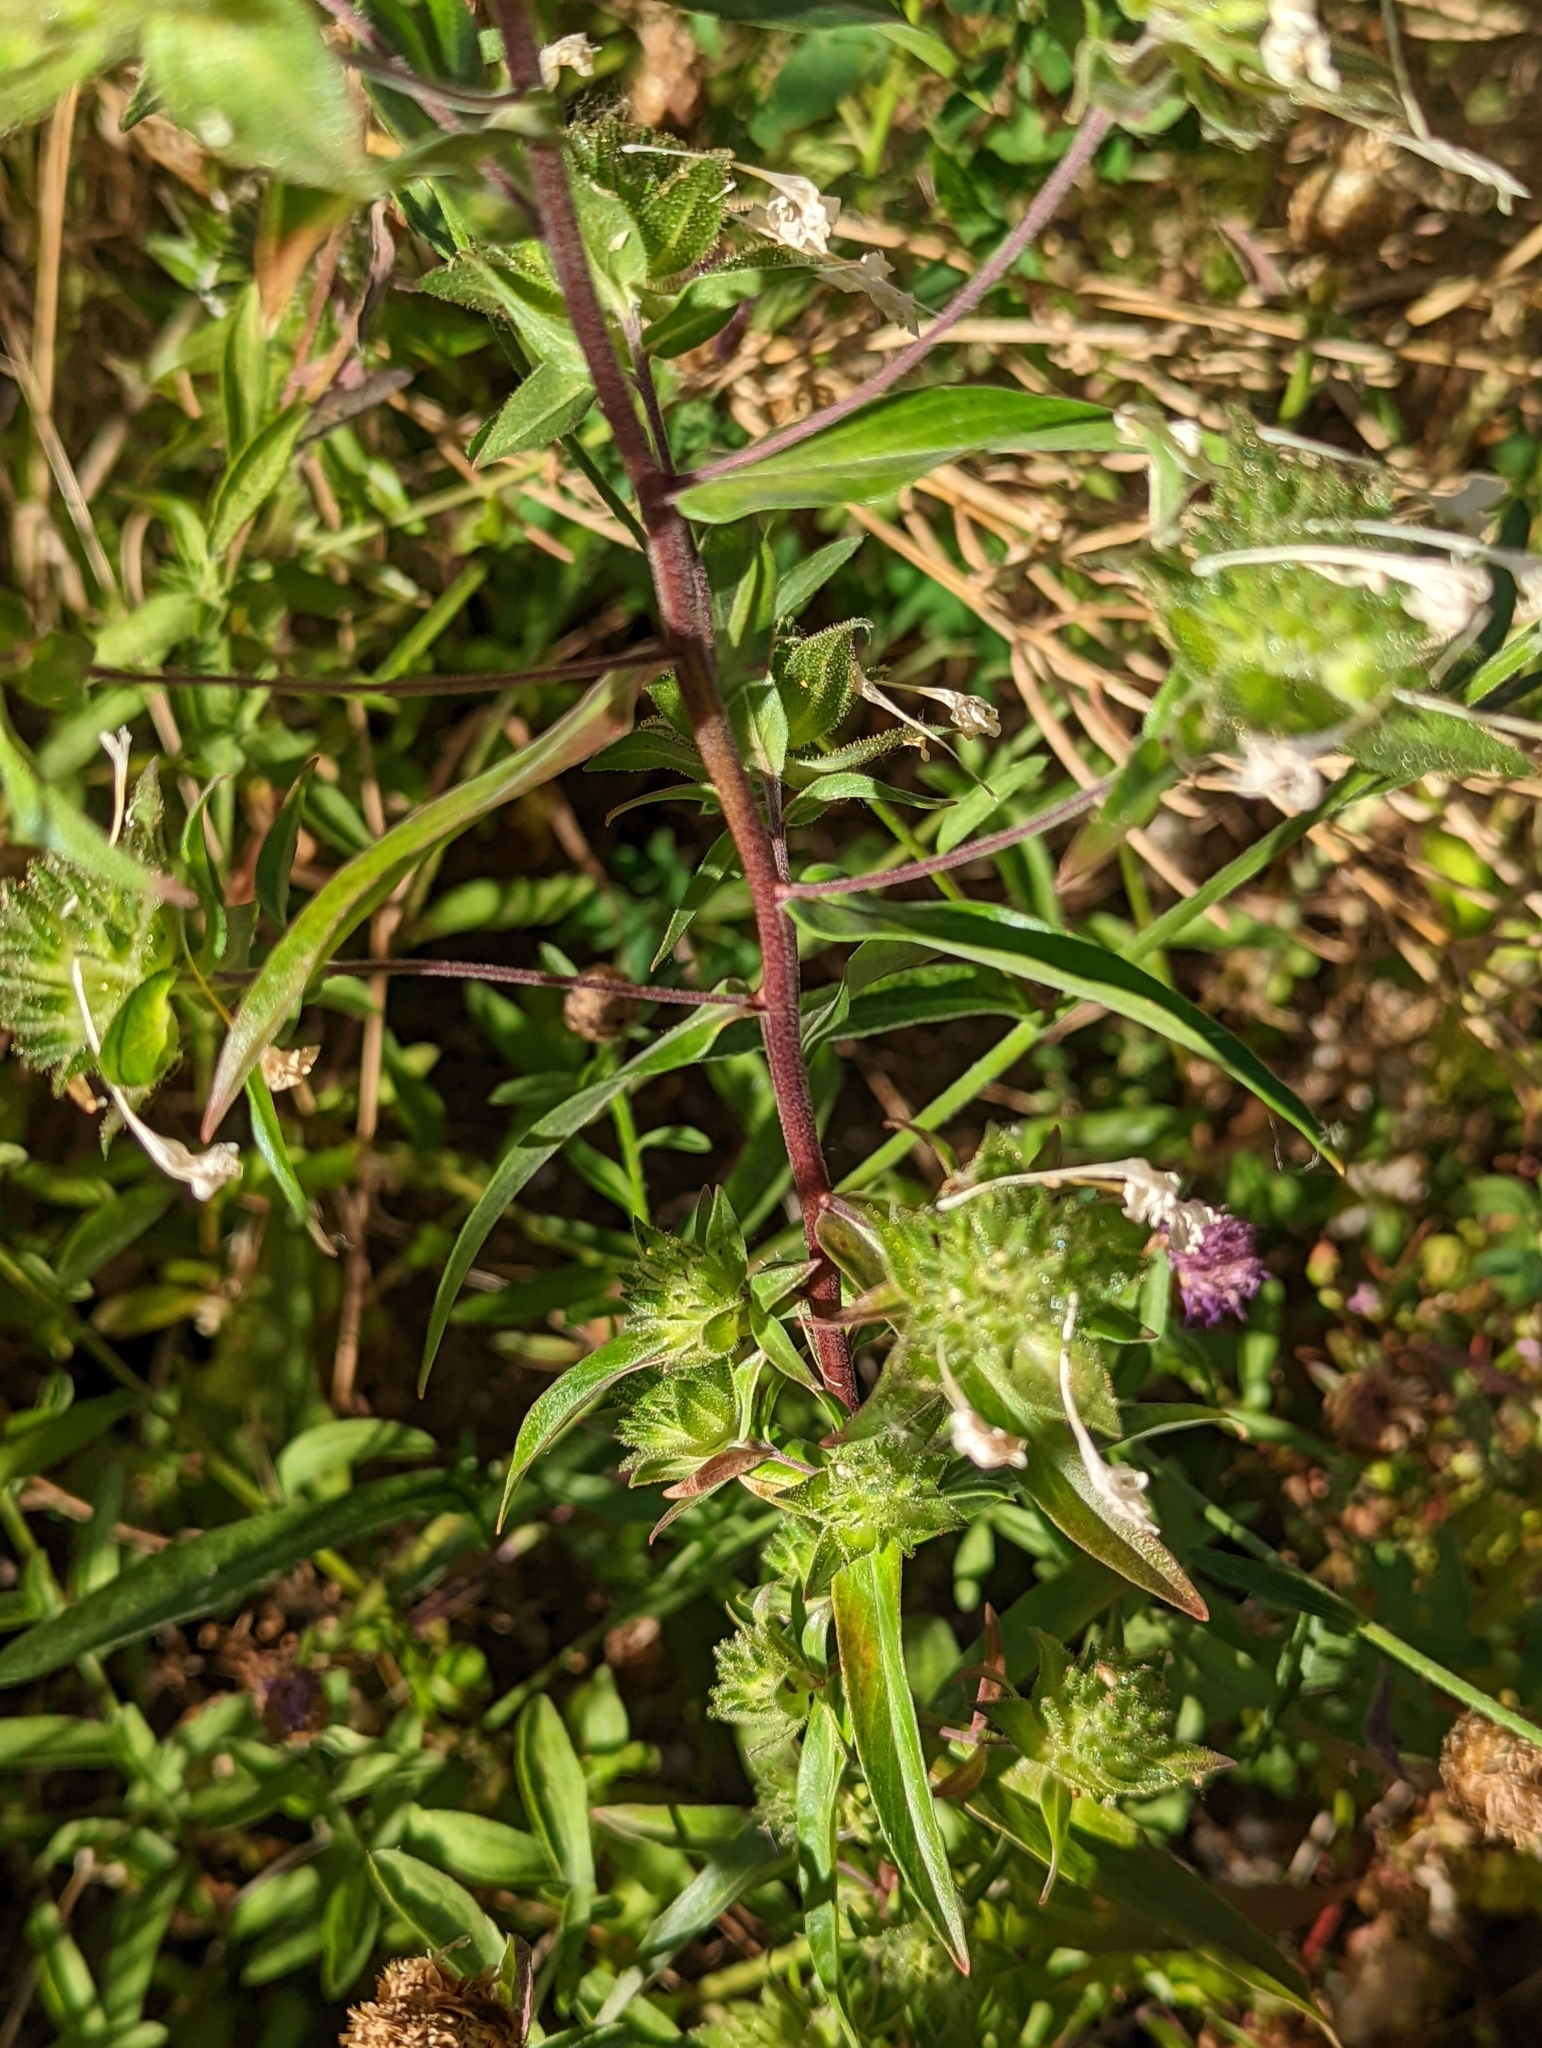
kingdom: Plantae
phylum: Tracheophyta
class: Magnoliopsida
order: Ericales
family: Polemoniaceae
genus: Collomia
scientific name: Collomia grandiflora
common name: California strawflower
